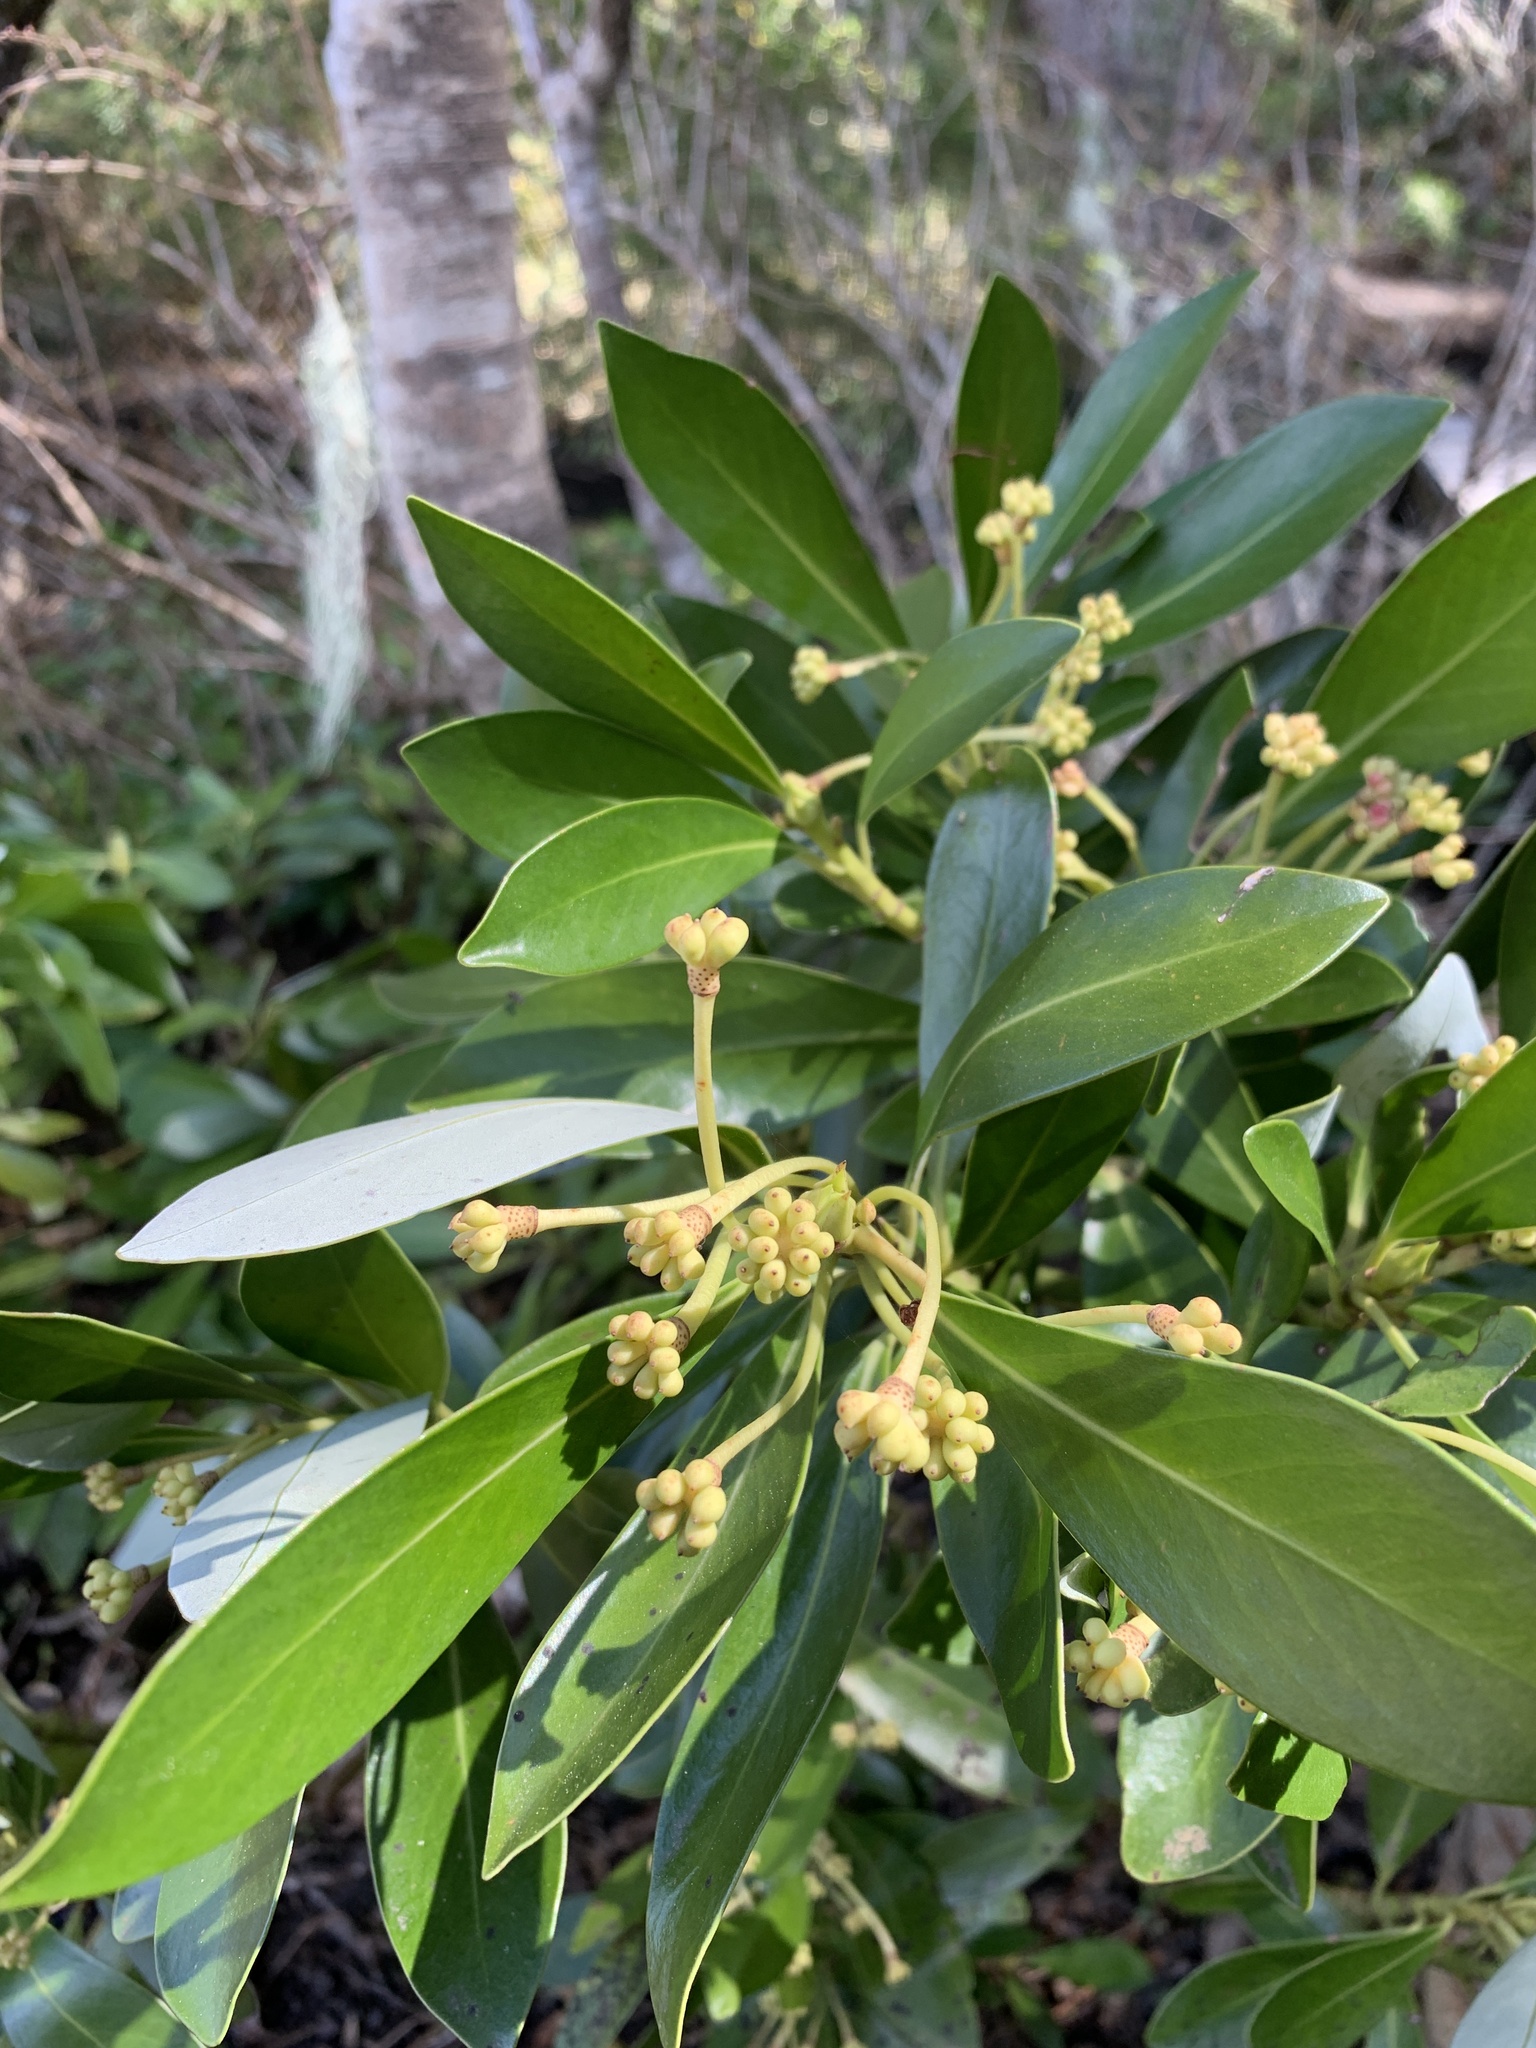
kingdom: Plantae
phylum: Tracheophyta
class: Magnoliopsida
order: Canellales
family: Winteraceae
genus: Drimys
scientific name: Drimys andina
